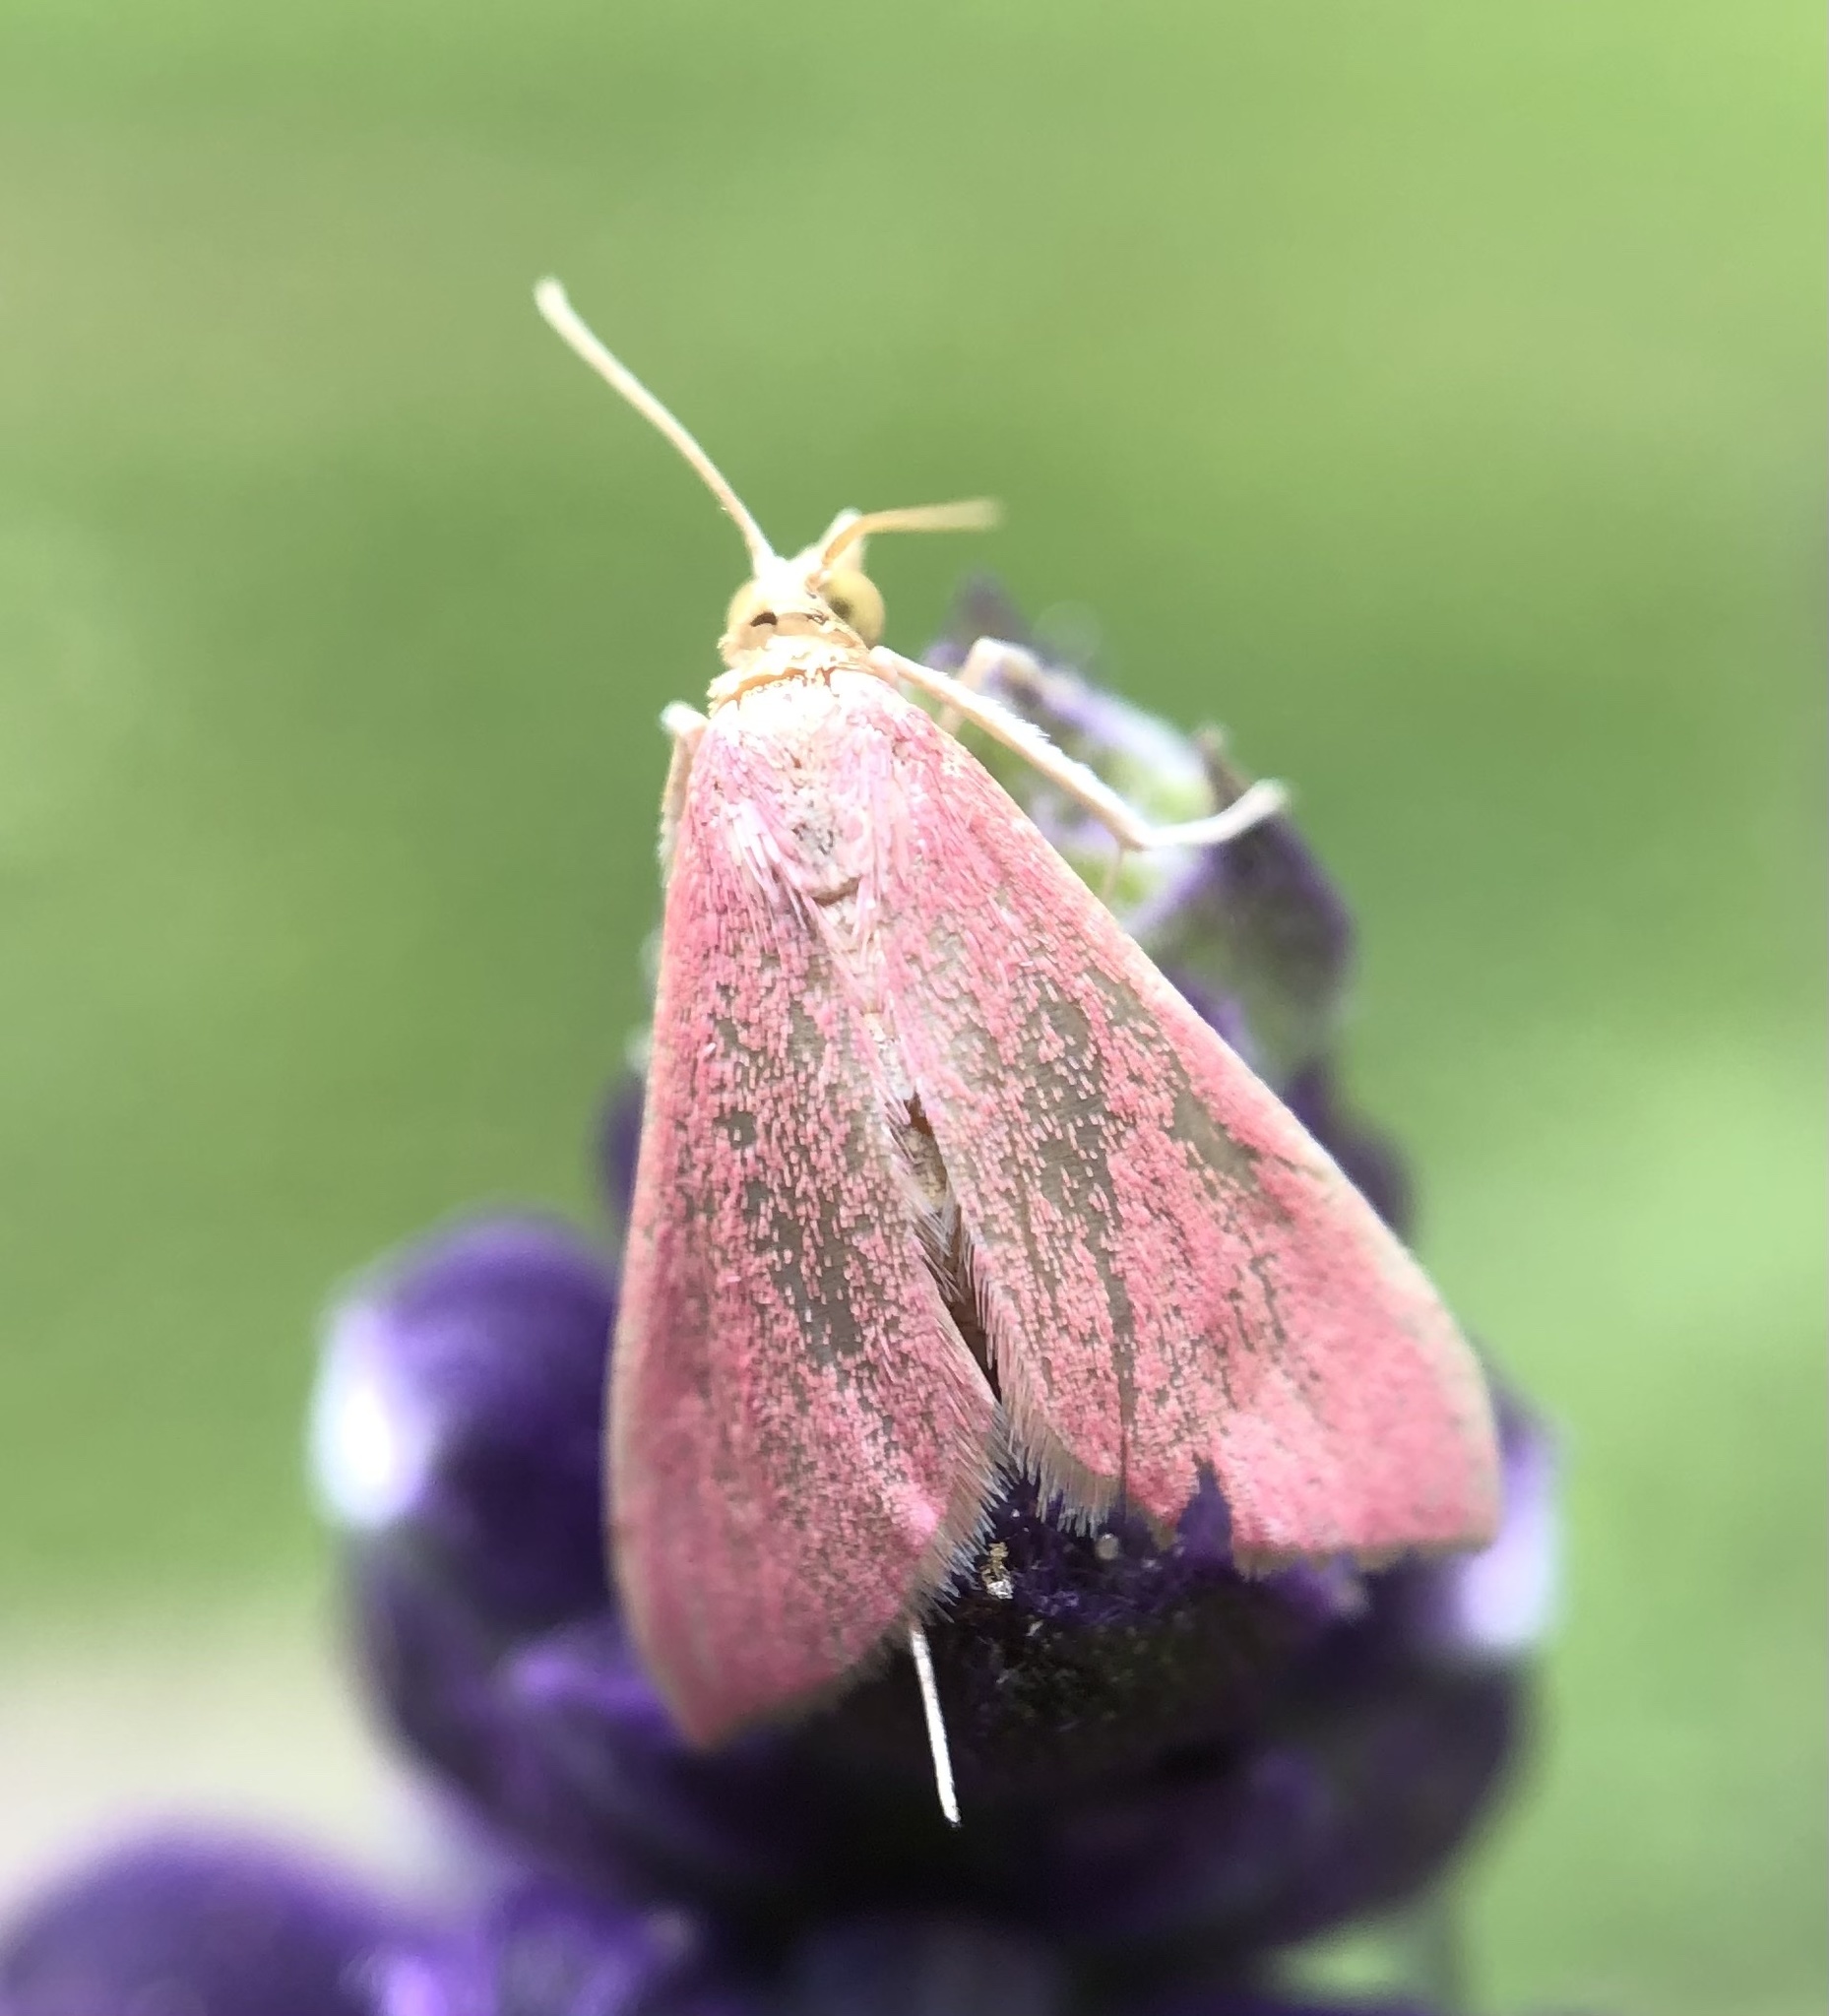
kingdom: Animalia
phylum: Arthropoda
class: Insecta
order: Lepidoptera
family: Crambidae
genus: Pyrausta
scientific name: Pyrausta inornatalis
